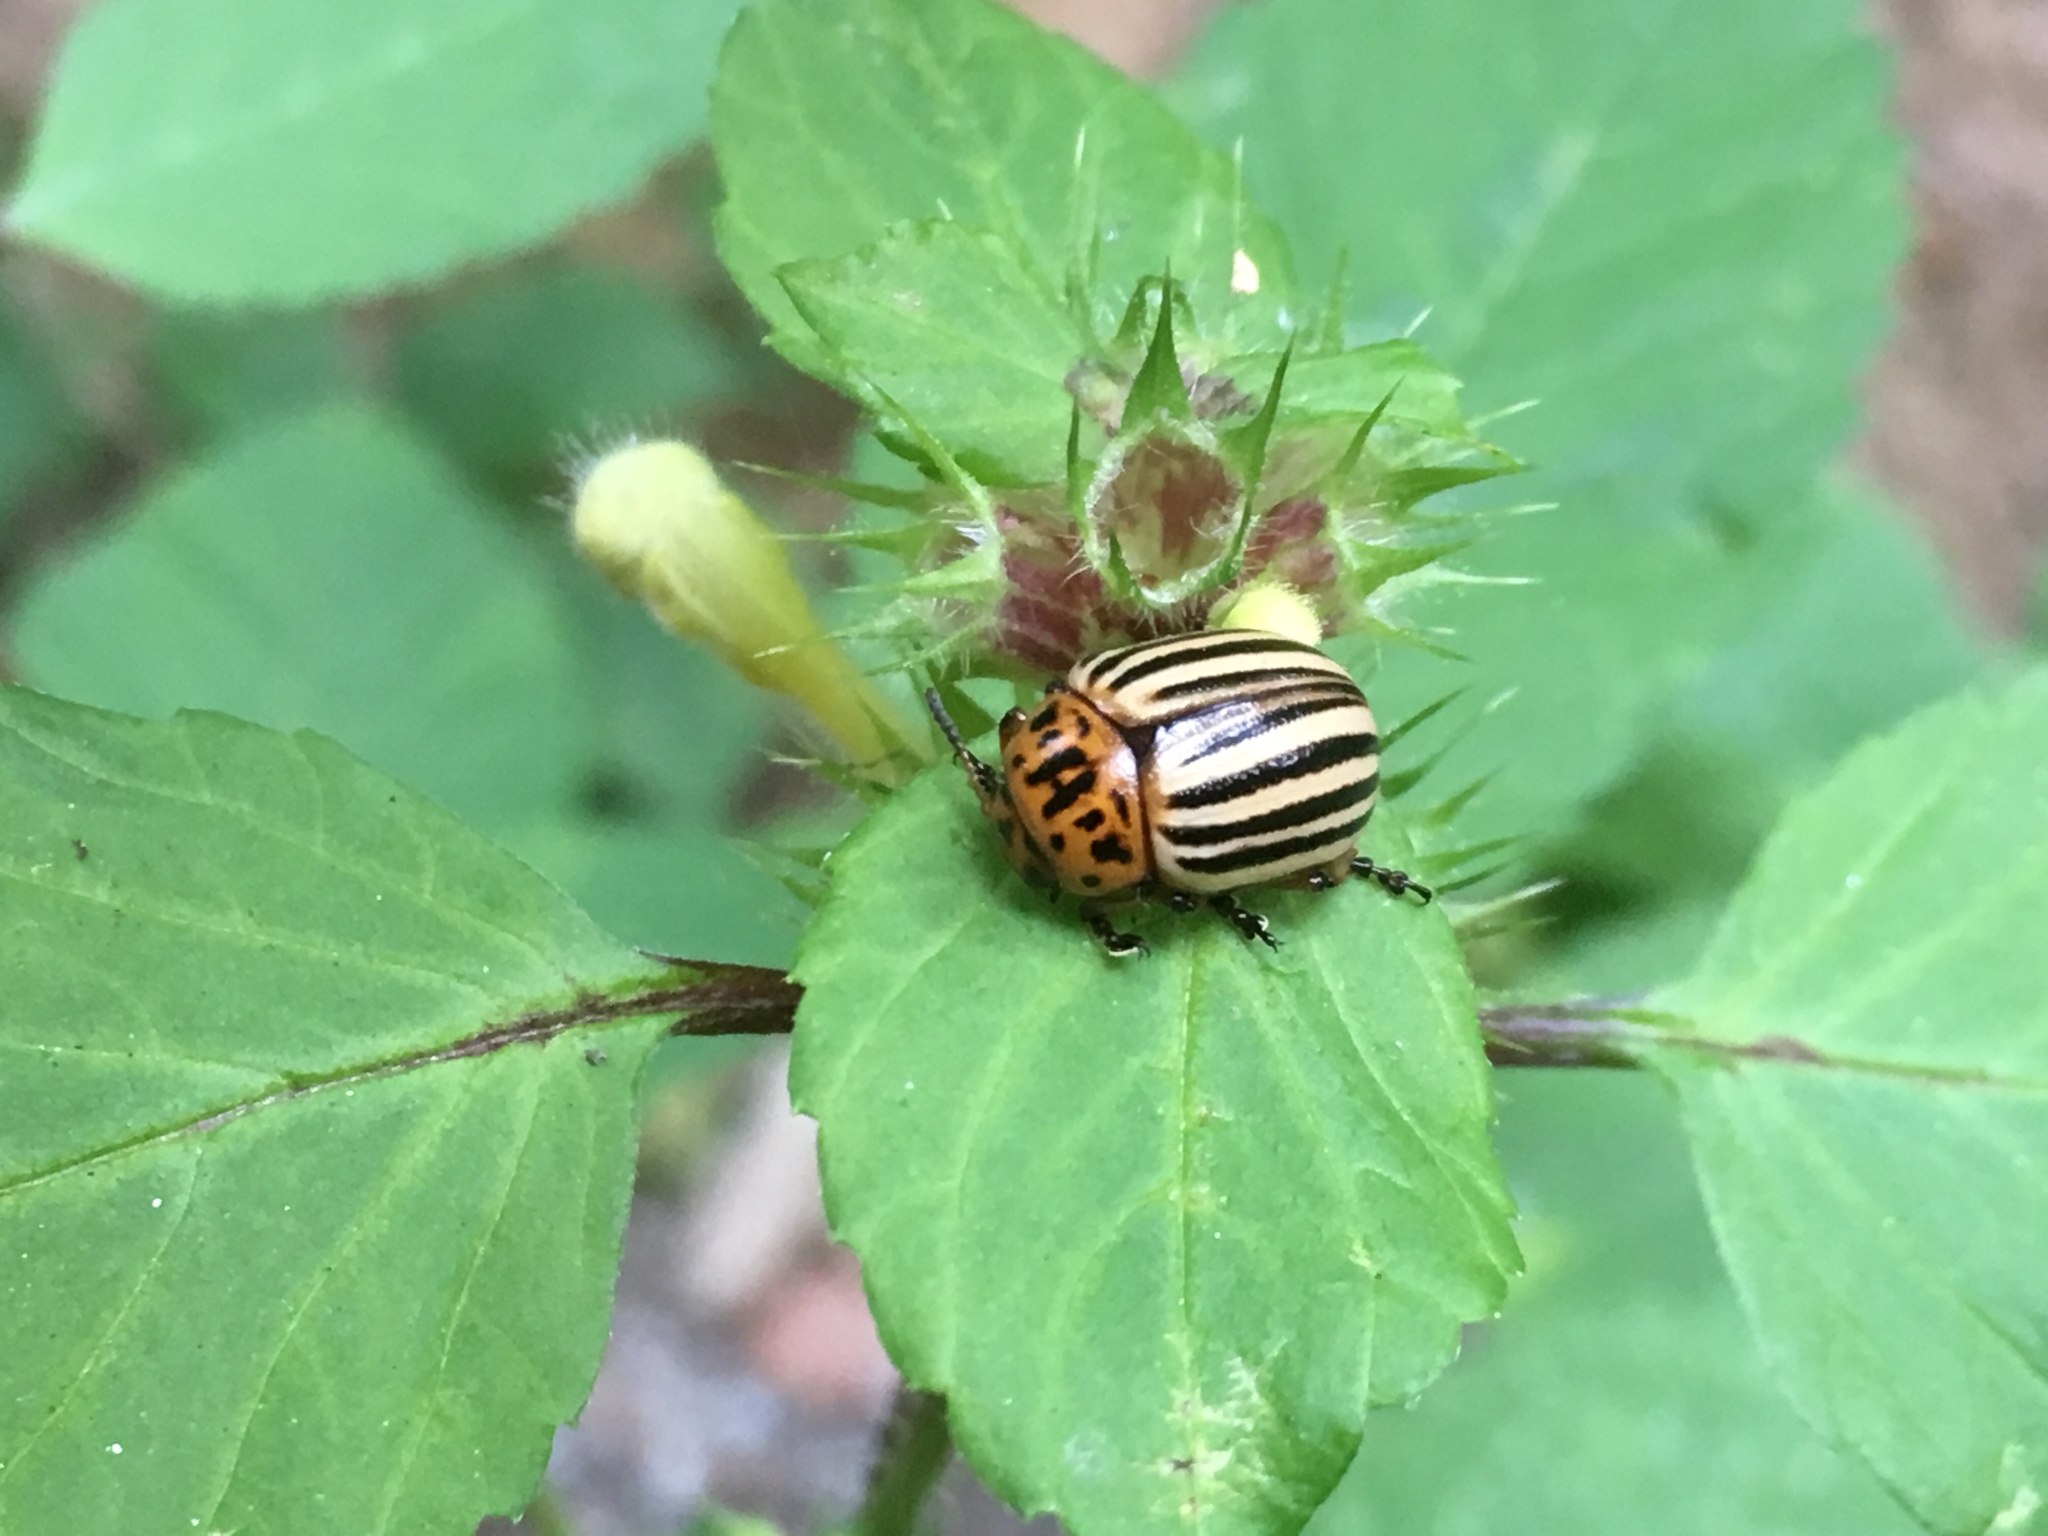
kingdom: Animalia
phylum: Arthropoda
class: Insecta
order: Coleoptera
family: Chrysomelidae
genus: Leptinotarsa
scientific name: Leptinotarsa decemlineata
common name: Colorado potato beetle
